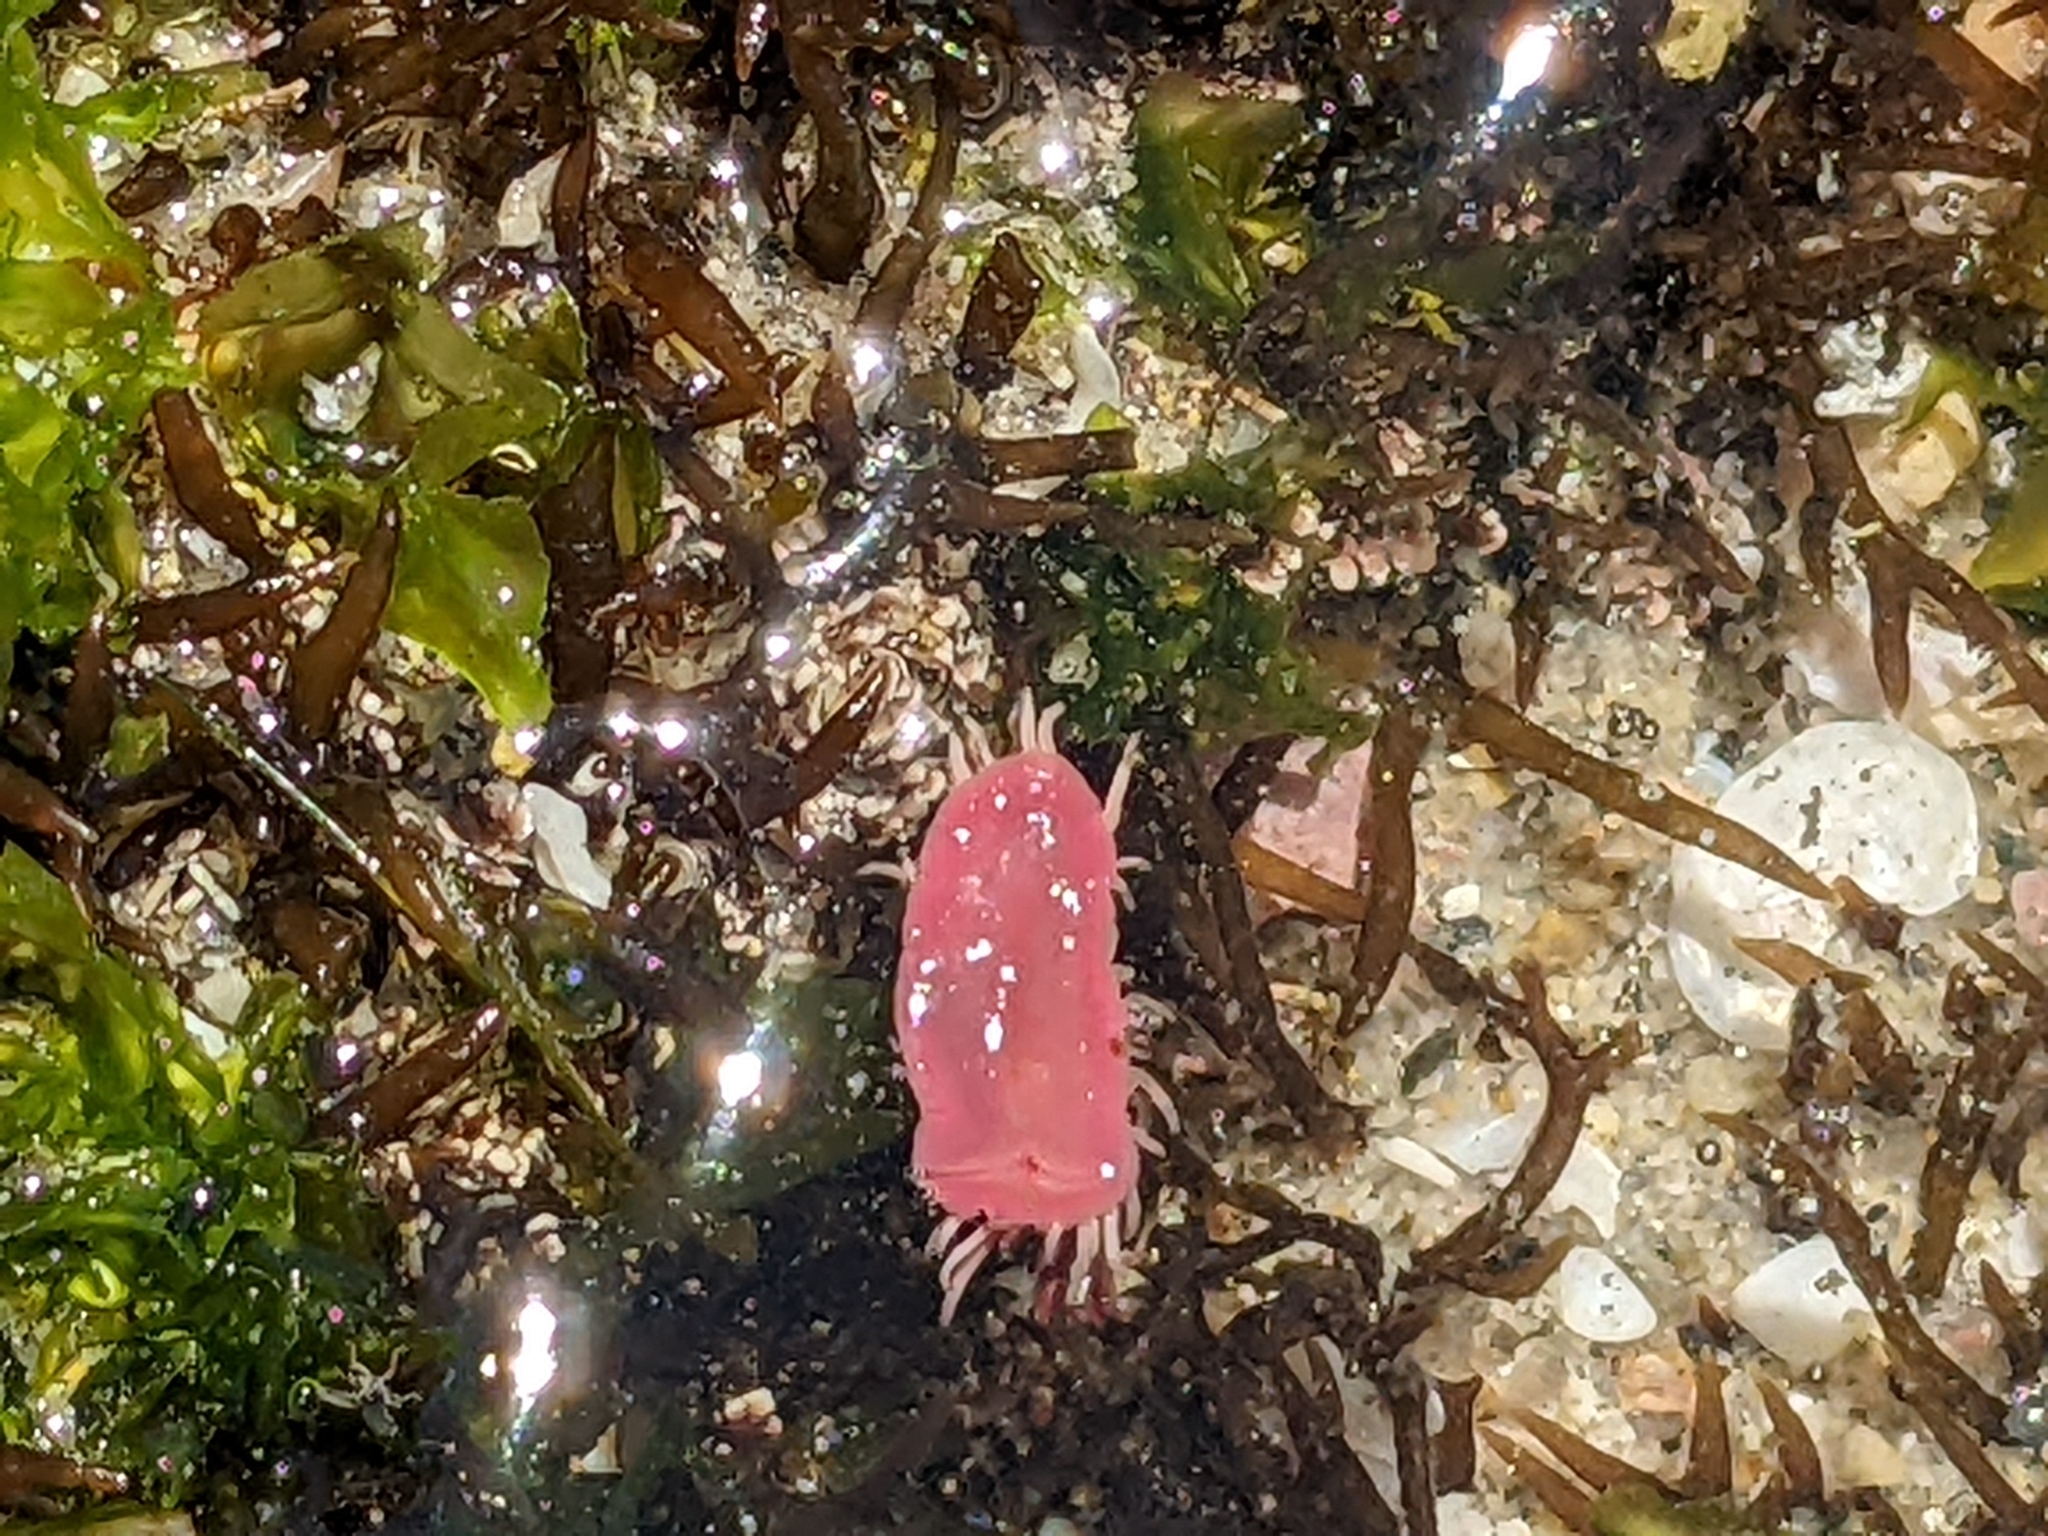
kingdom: Animalia
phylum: Mollusca
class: Gastropoda
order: Nudibranchia
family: Goniodorididae
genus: Okenia
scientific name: Okenia
